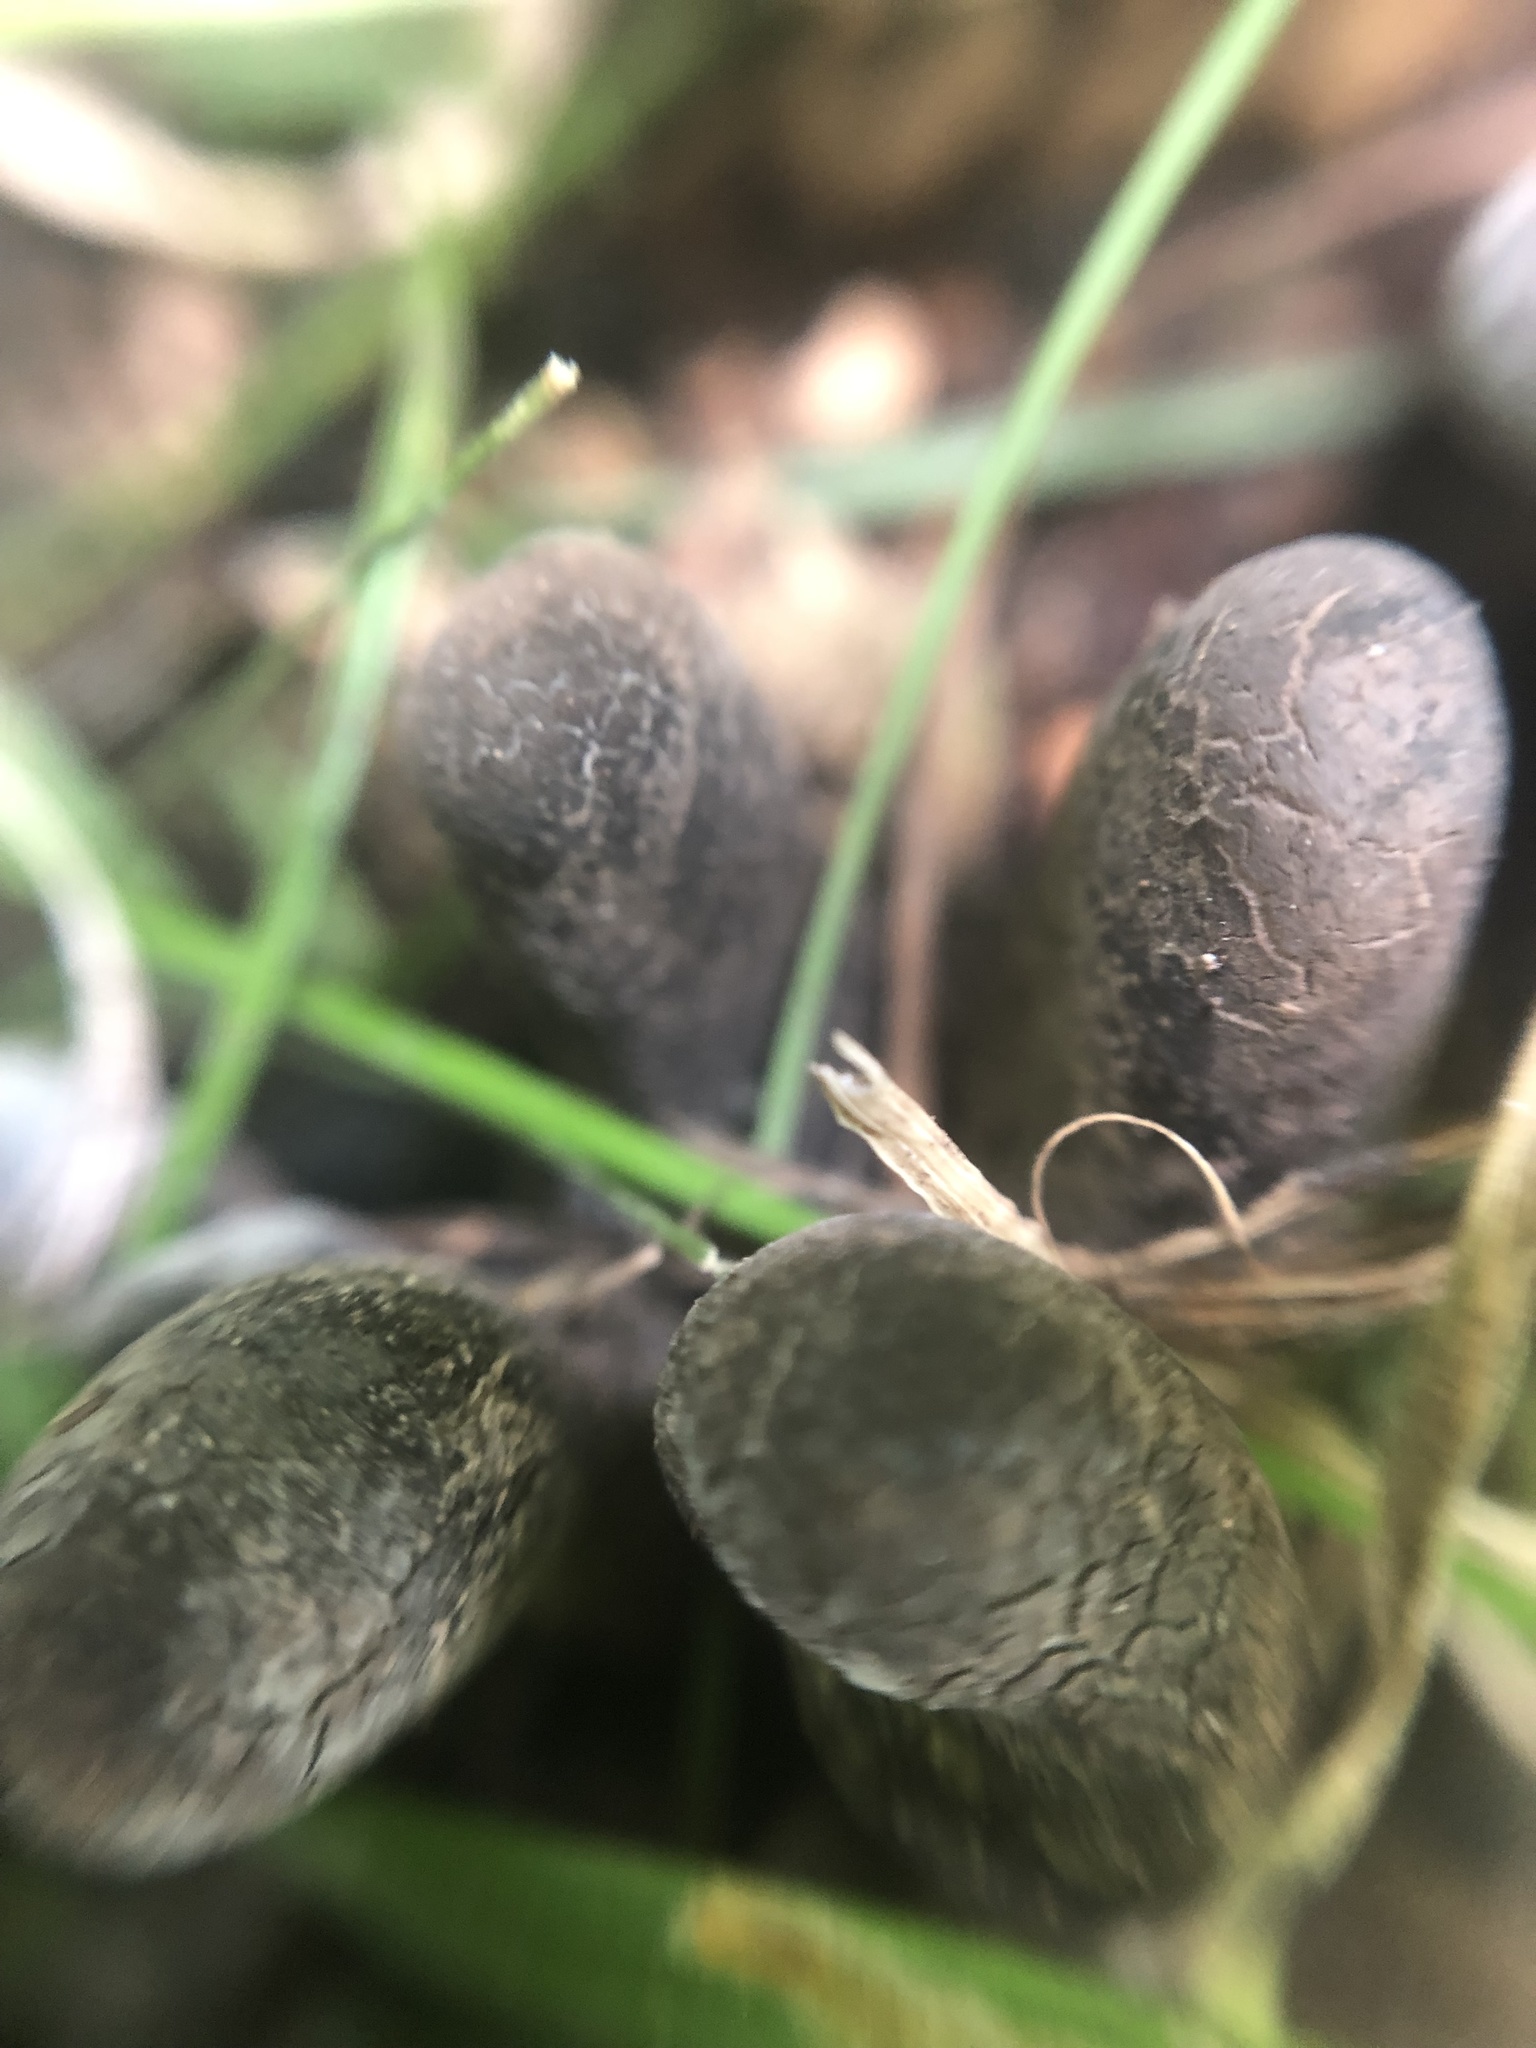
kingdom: Fungi
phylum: Ascomycota
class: Sordariomycetes
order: Xylariales
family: Xylariaceae
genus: Xylaria
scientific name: Xylaria polymorpha
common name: Dead man's fingers
